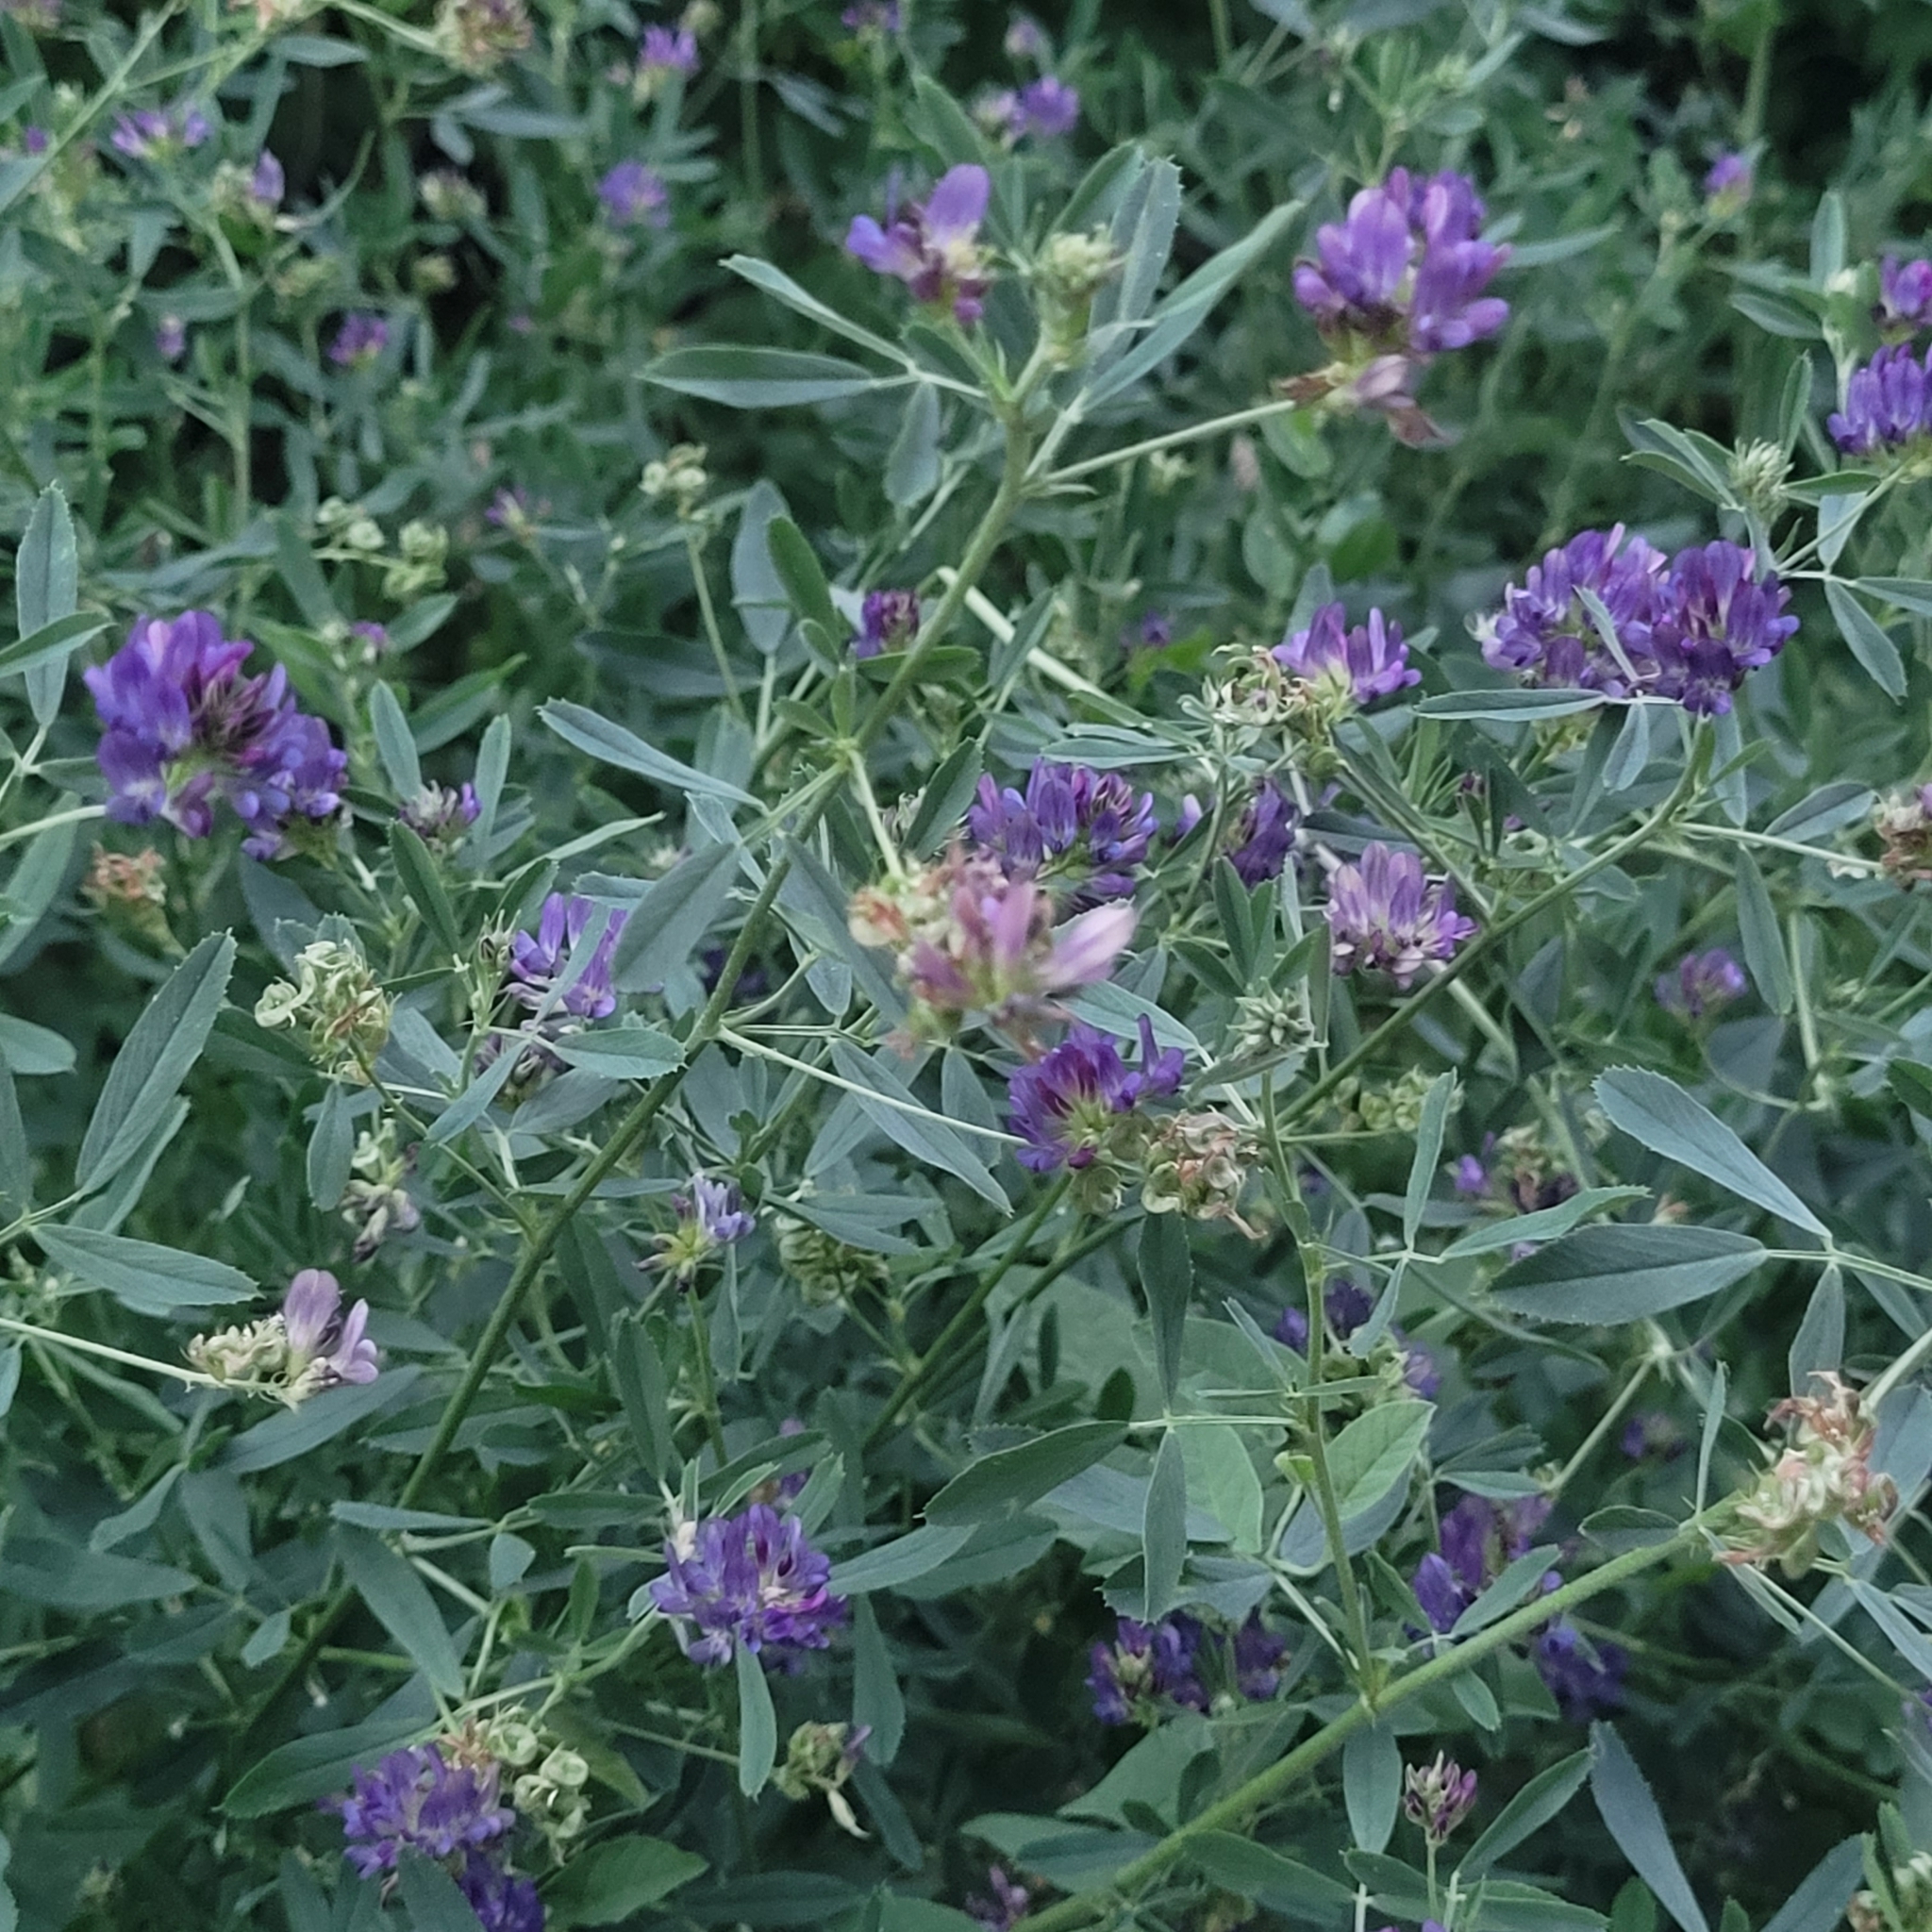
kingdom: Plantae
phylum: Tracheophyta
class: Magnoliopsida
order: Fabales
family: Fabaceae
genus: Medicago
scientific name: Medicago sativa
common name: Alfalfa
